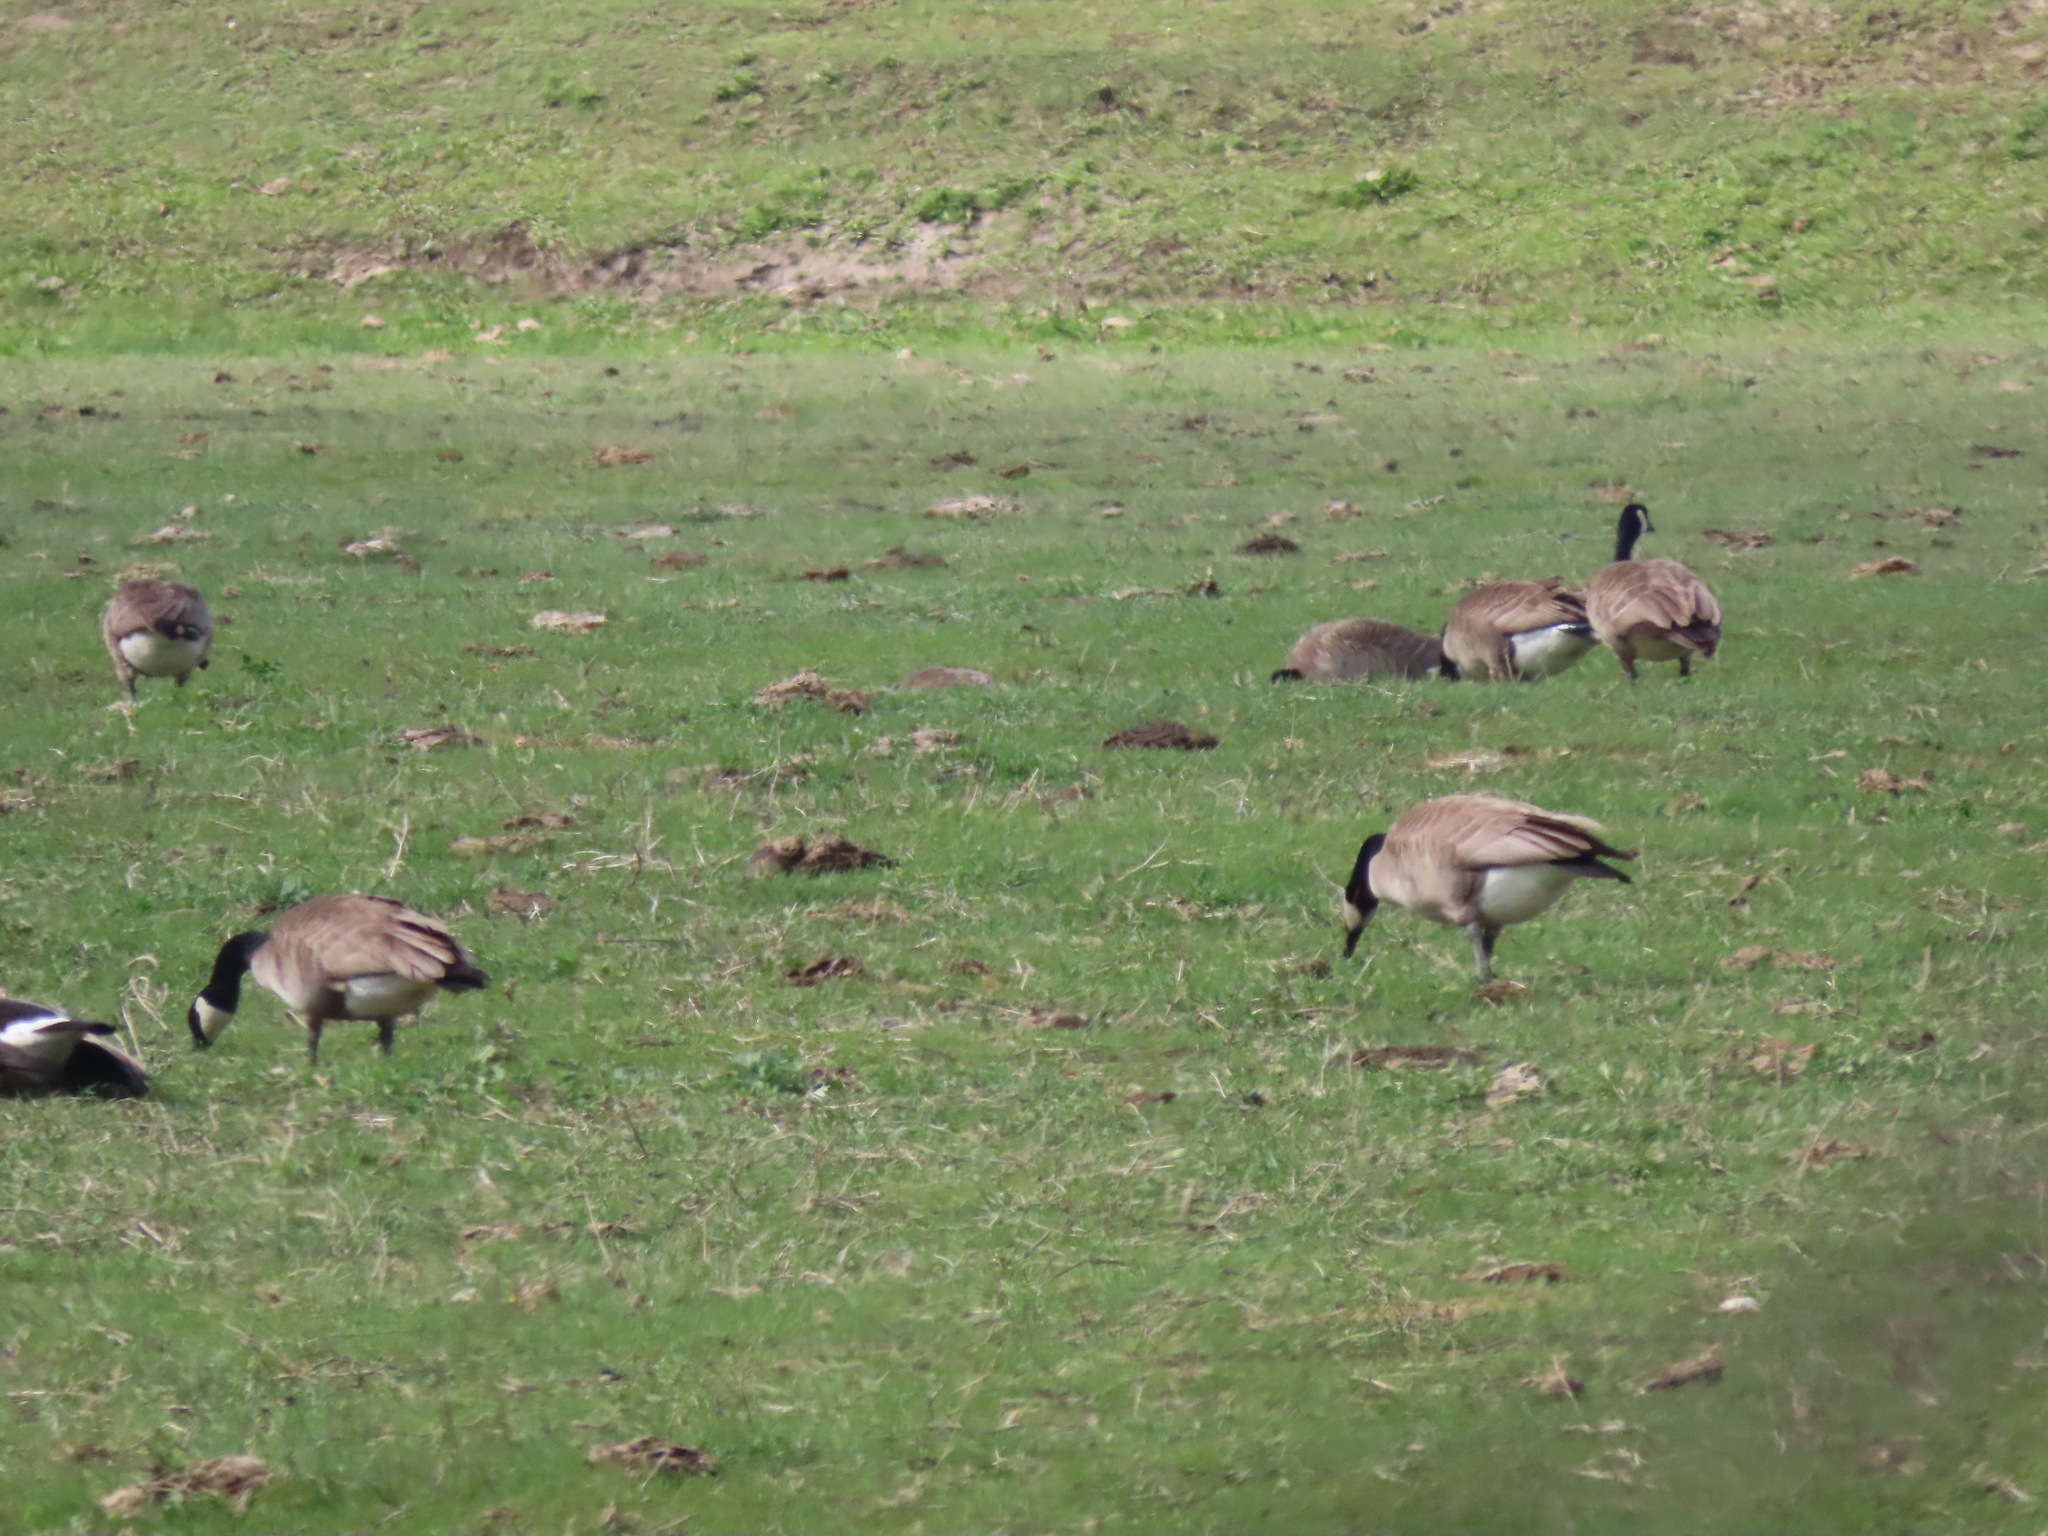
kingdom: Animalia
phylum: Chordata
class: Aves
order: Anseriformes
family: Anatidae
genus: Branta
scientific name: Branta canadensis
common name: Canada goose
